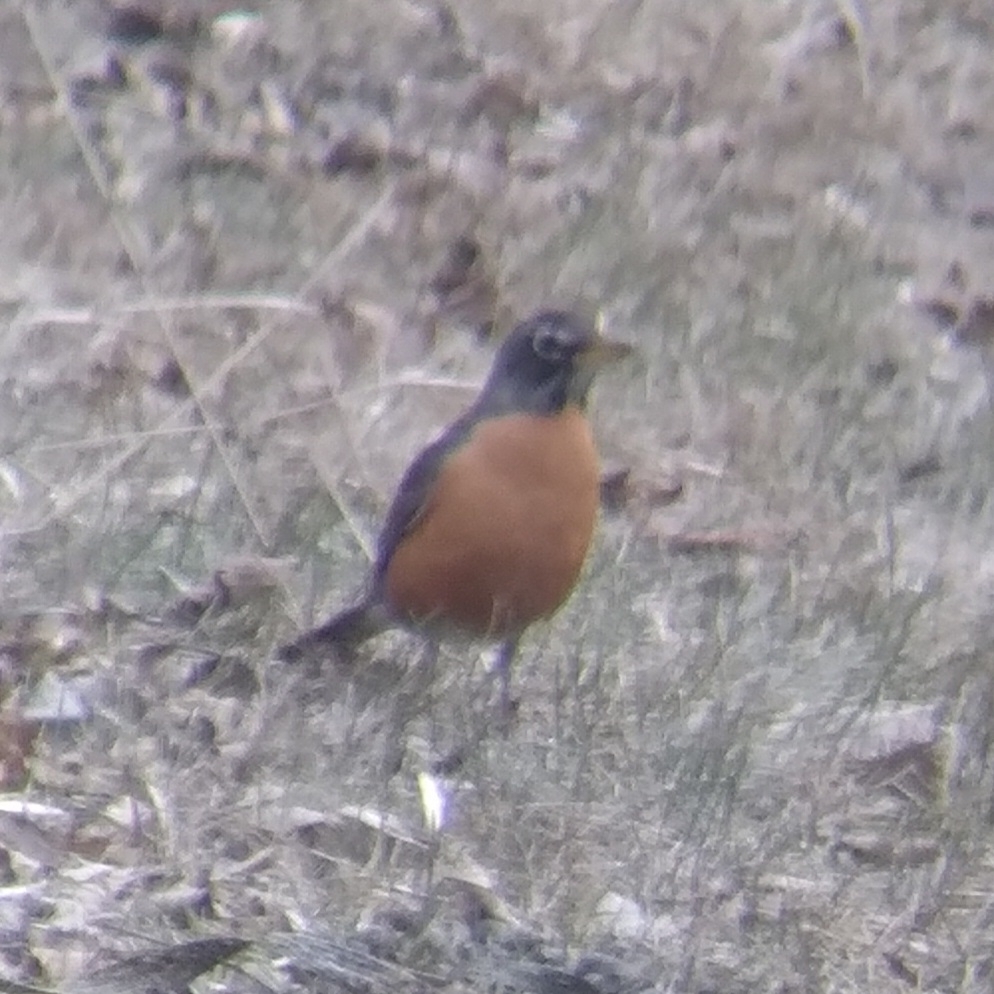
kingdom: Animalia
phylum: Chordata
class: Aves
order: Passeriformes
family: Turdidae
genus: Turdus
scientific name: Turdus migratorius
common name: American robin
